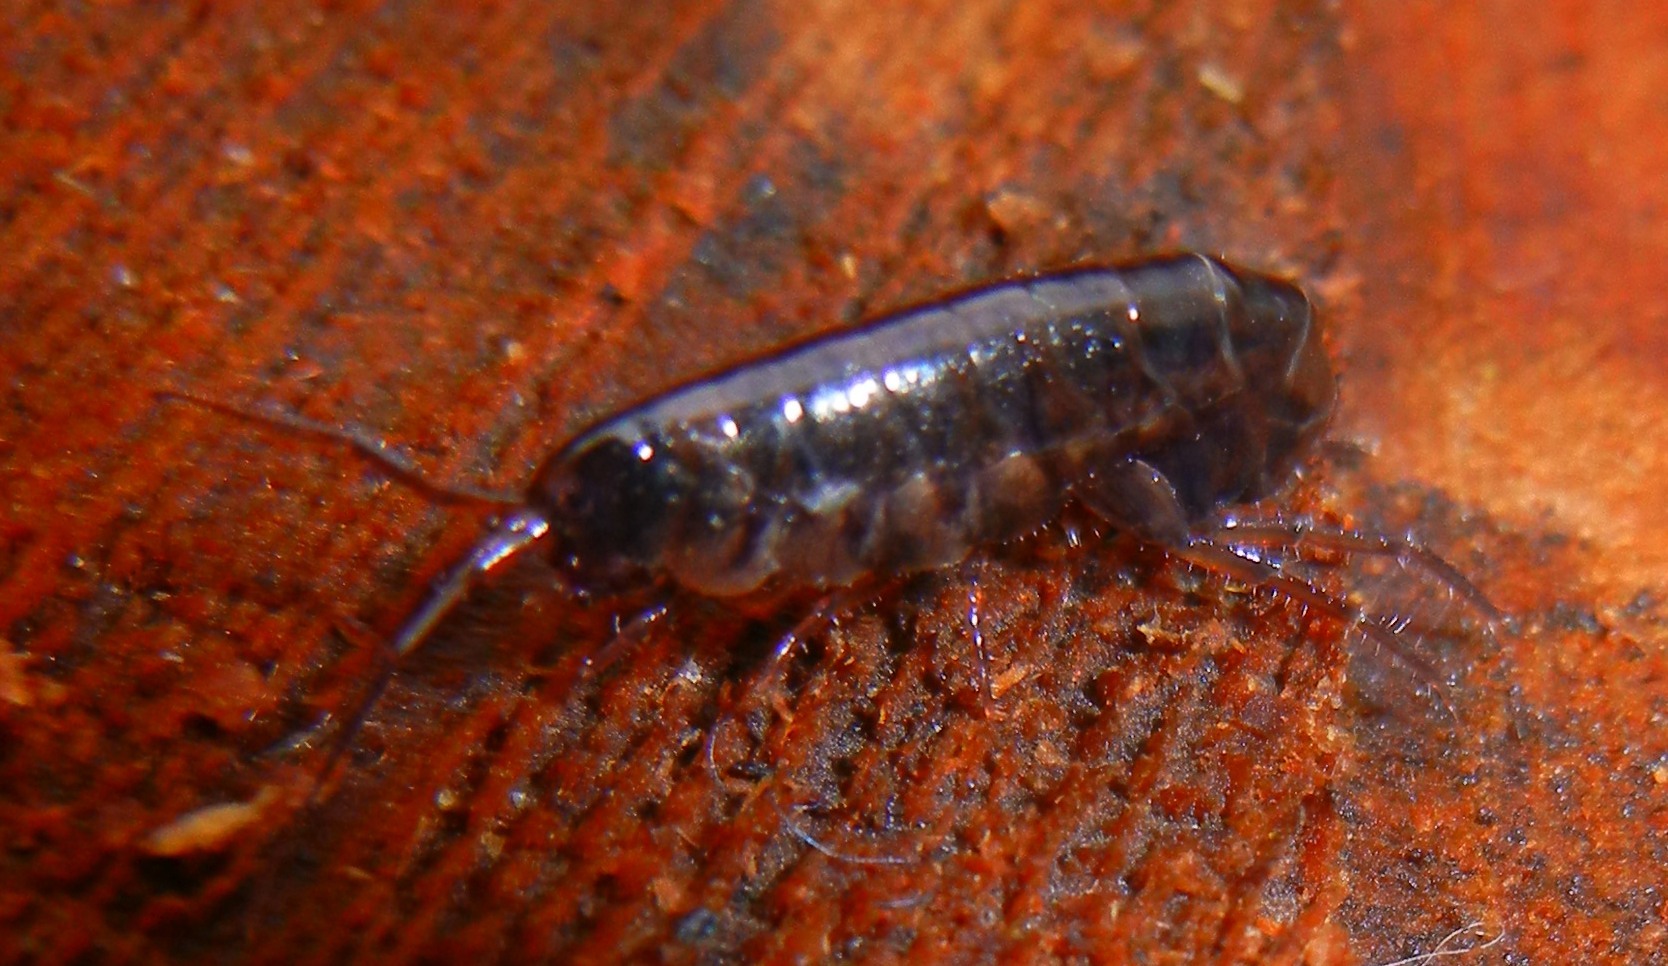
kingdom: Animalia
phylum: Arthropoda
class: Malacostraca
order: Amphipoda
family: Arcitalitridae
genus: Arcitalitrus
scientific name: Arcitalitrus dorrieni
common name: Landhopper
